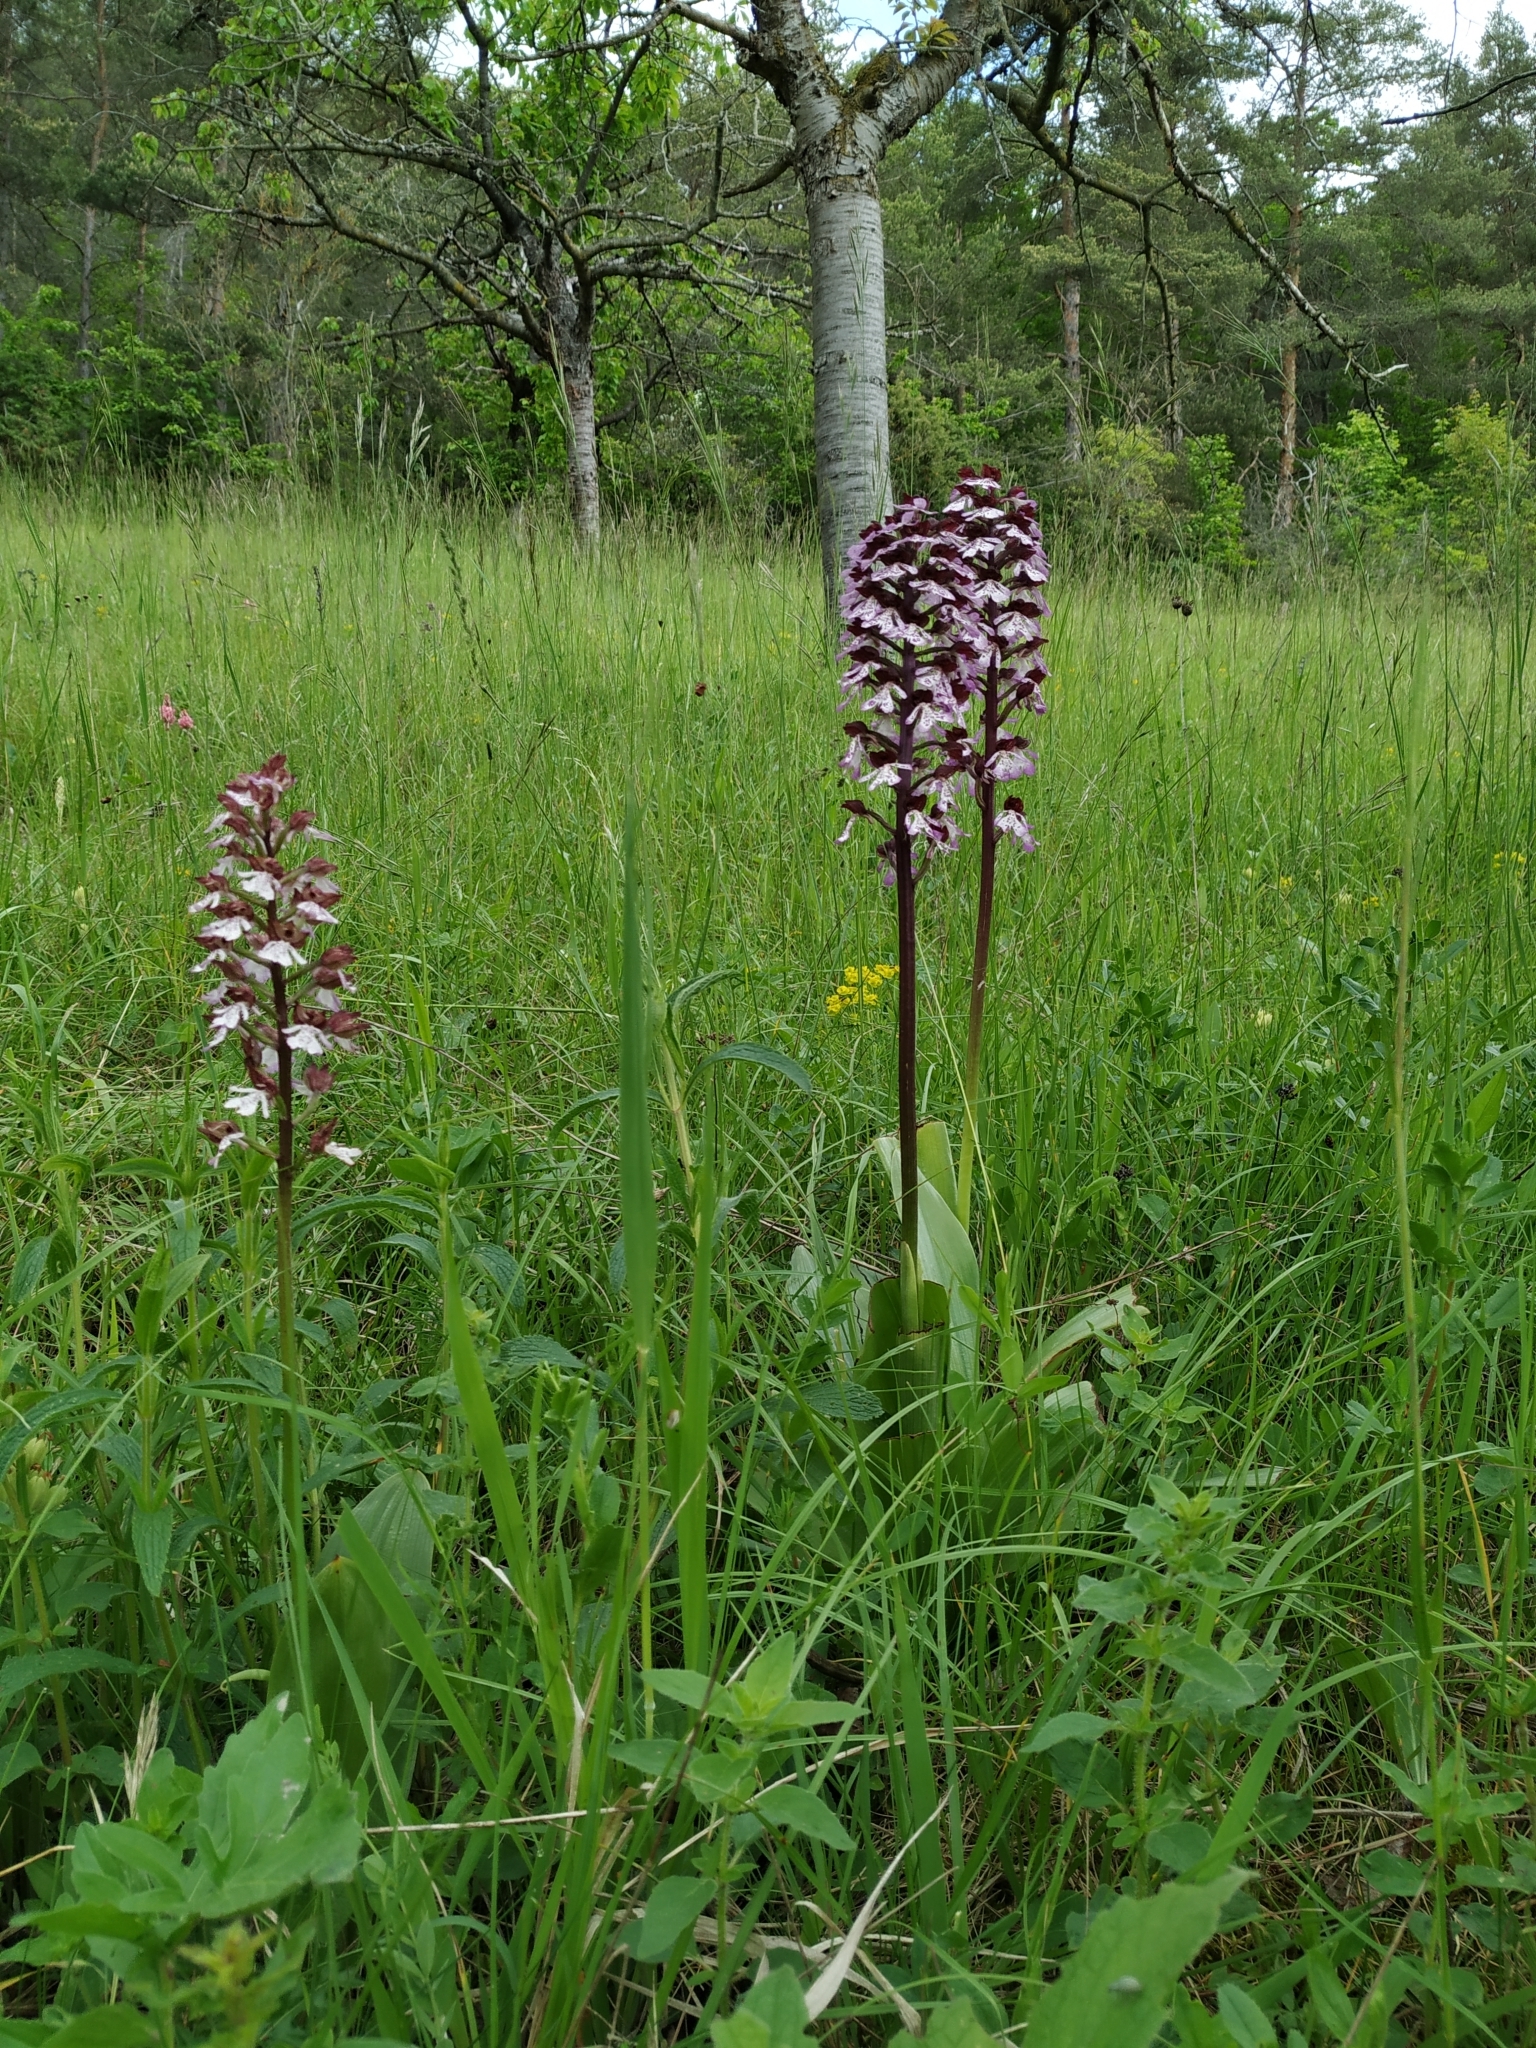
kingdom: Plantae
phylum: Tracheophyta
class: Liliopsida
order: Asparagales
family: Orchidaceae
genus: Orchis
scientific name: Orchis purpurea
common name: Lady orchid
